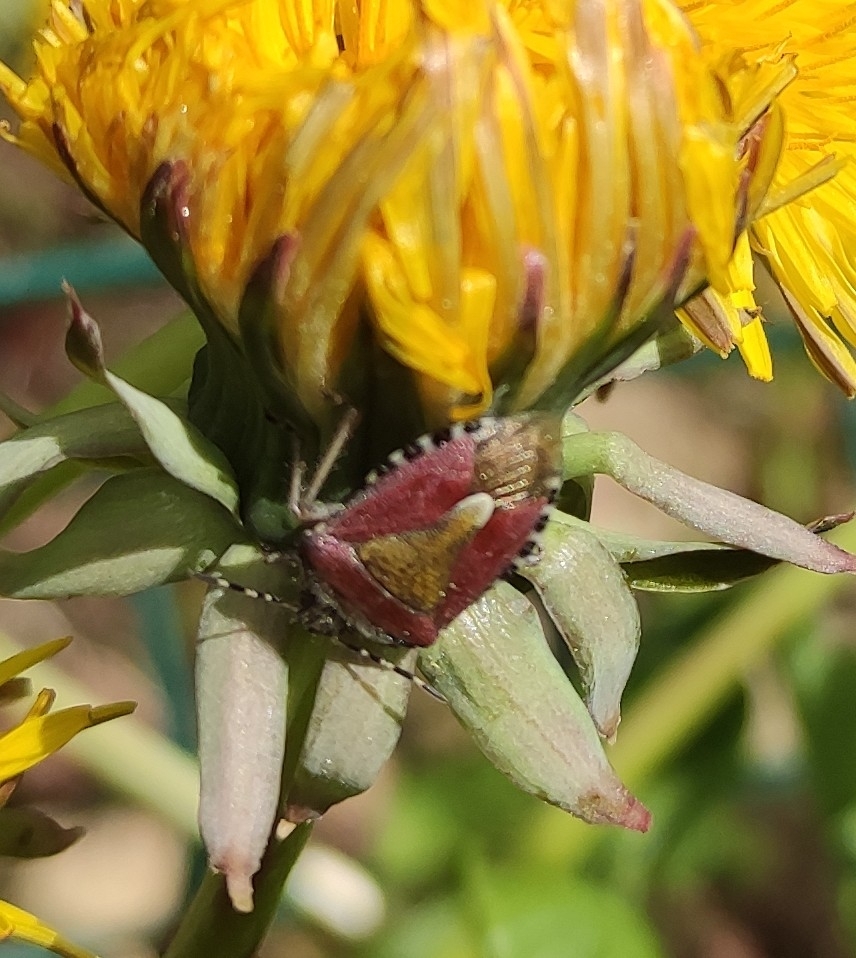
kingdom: Animalia
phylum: Arthropoda
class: Insecta
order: Hemiptera
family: Pentatomidae
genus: Dolycoris
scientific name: Dolycoris baccarum
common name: Sloe bug
